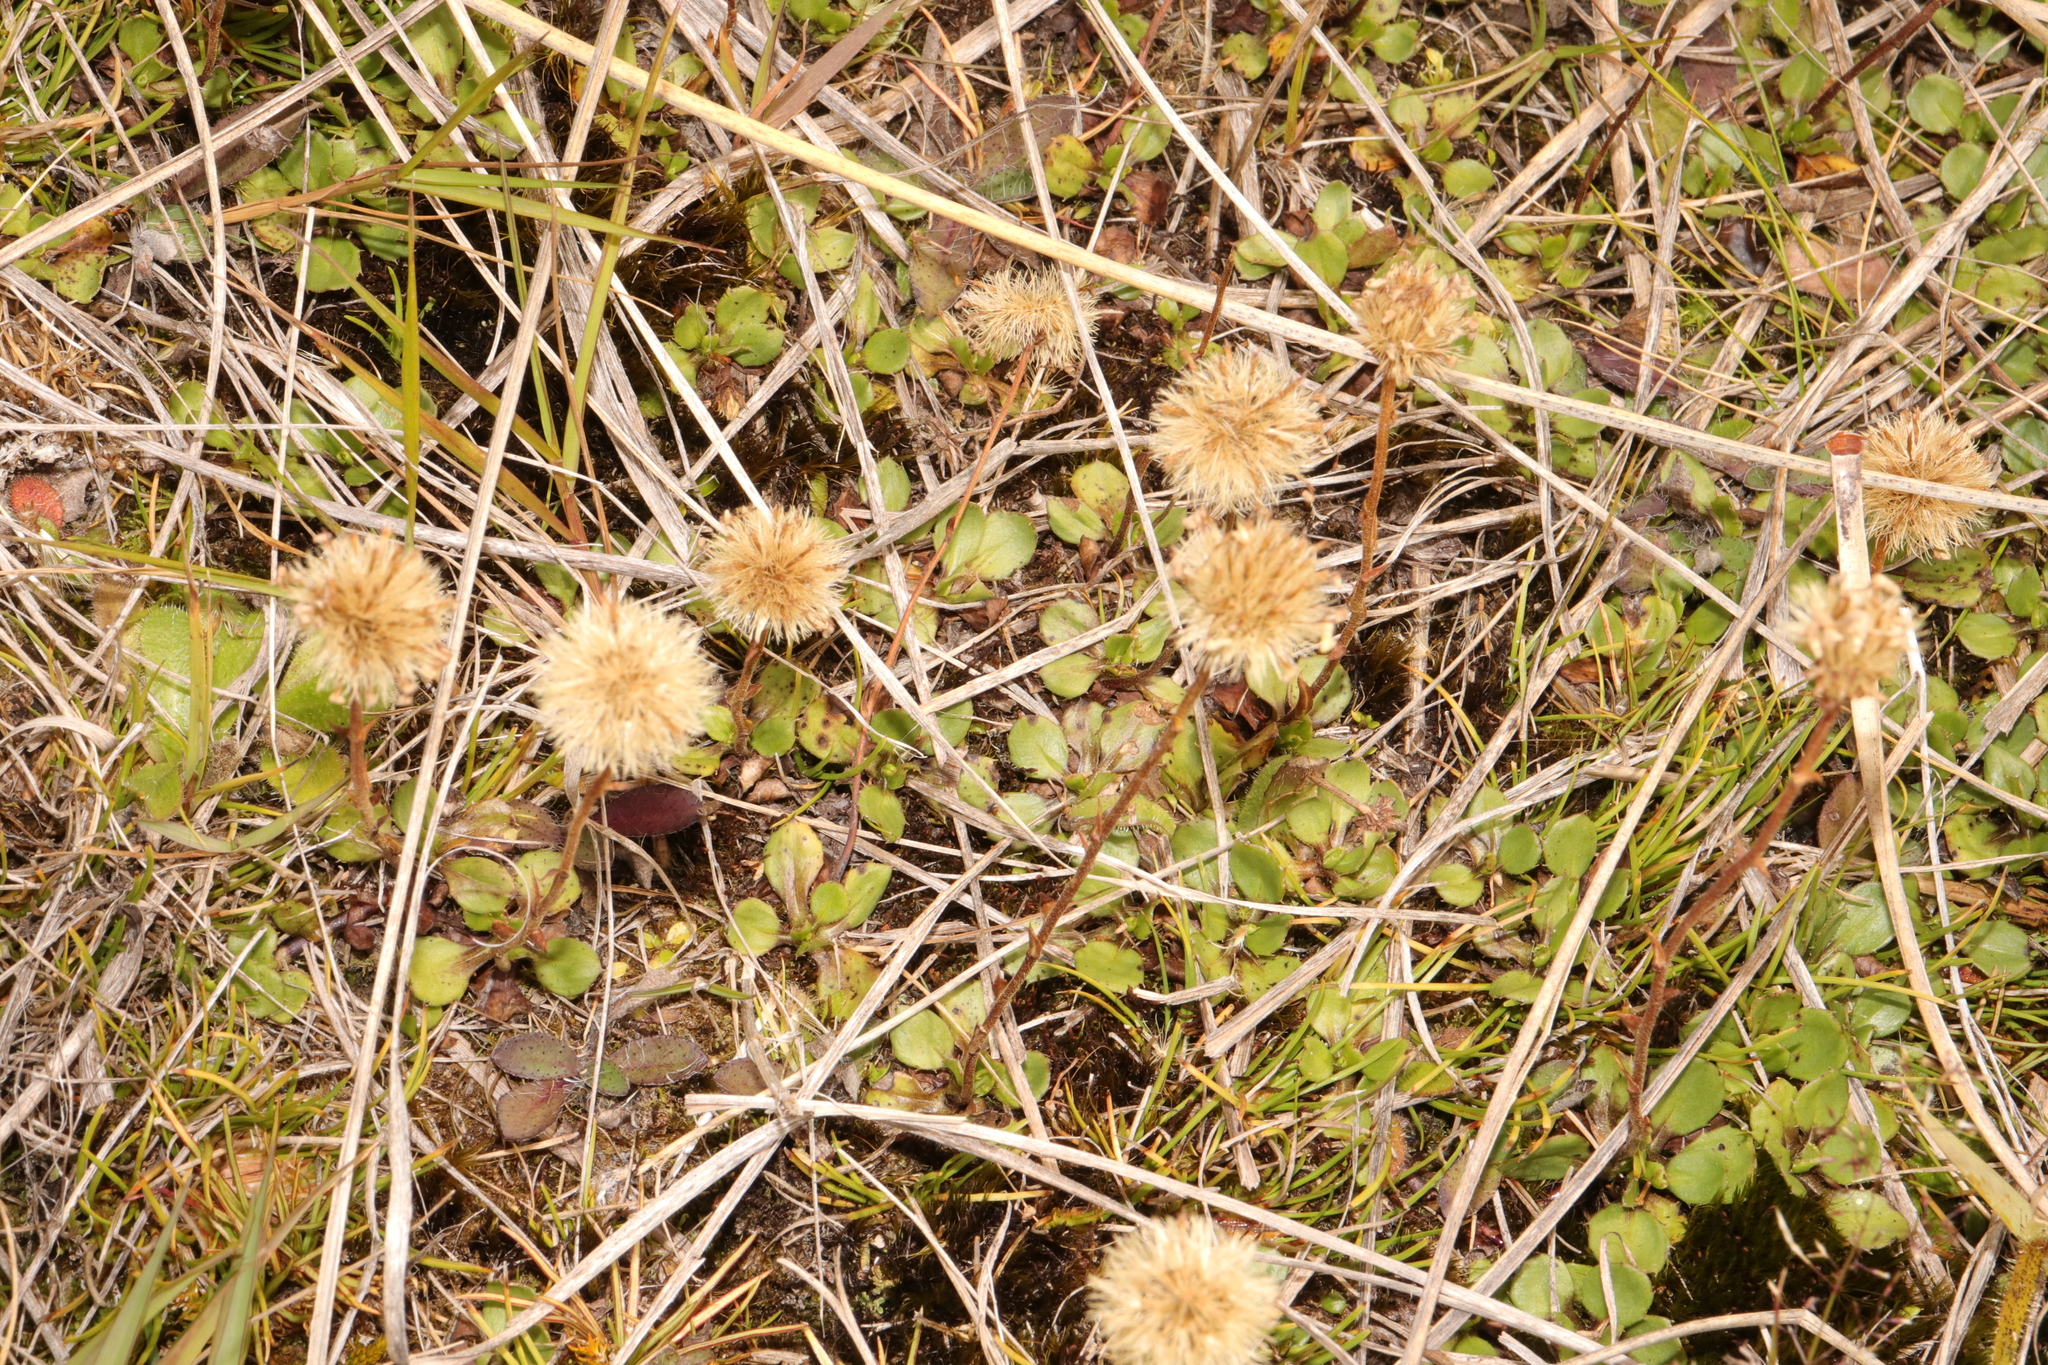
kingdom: Plantae
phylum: Tracheophyta
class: Magnoliopsida
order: Asterales
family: Asteraceae
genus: Celmisia
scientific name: Celmisia glandulosa
